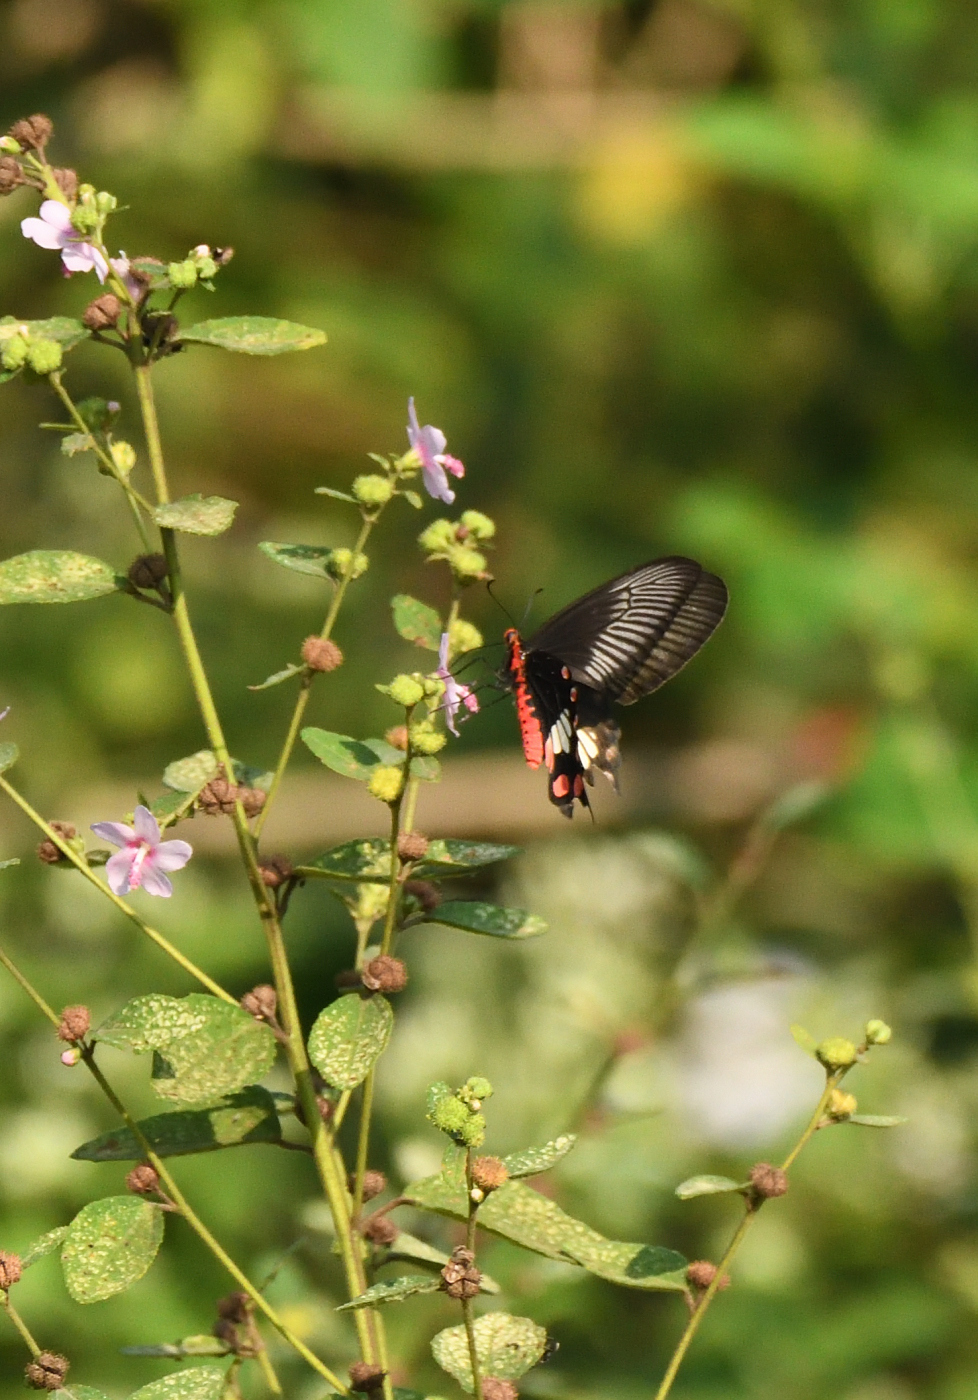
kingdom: Animalia
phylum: Arthropoda
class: Insecta
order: Lepidoptera
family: Papilionidae
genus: Pachliopta
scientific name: Pachliopta aristolochiae
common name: Common rose
